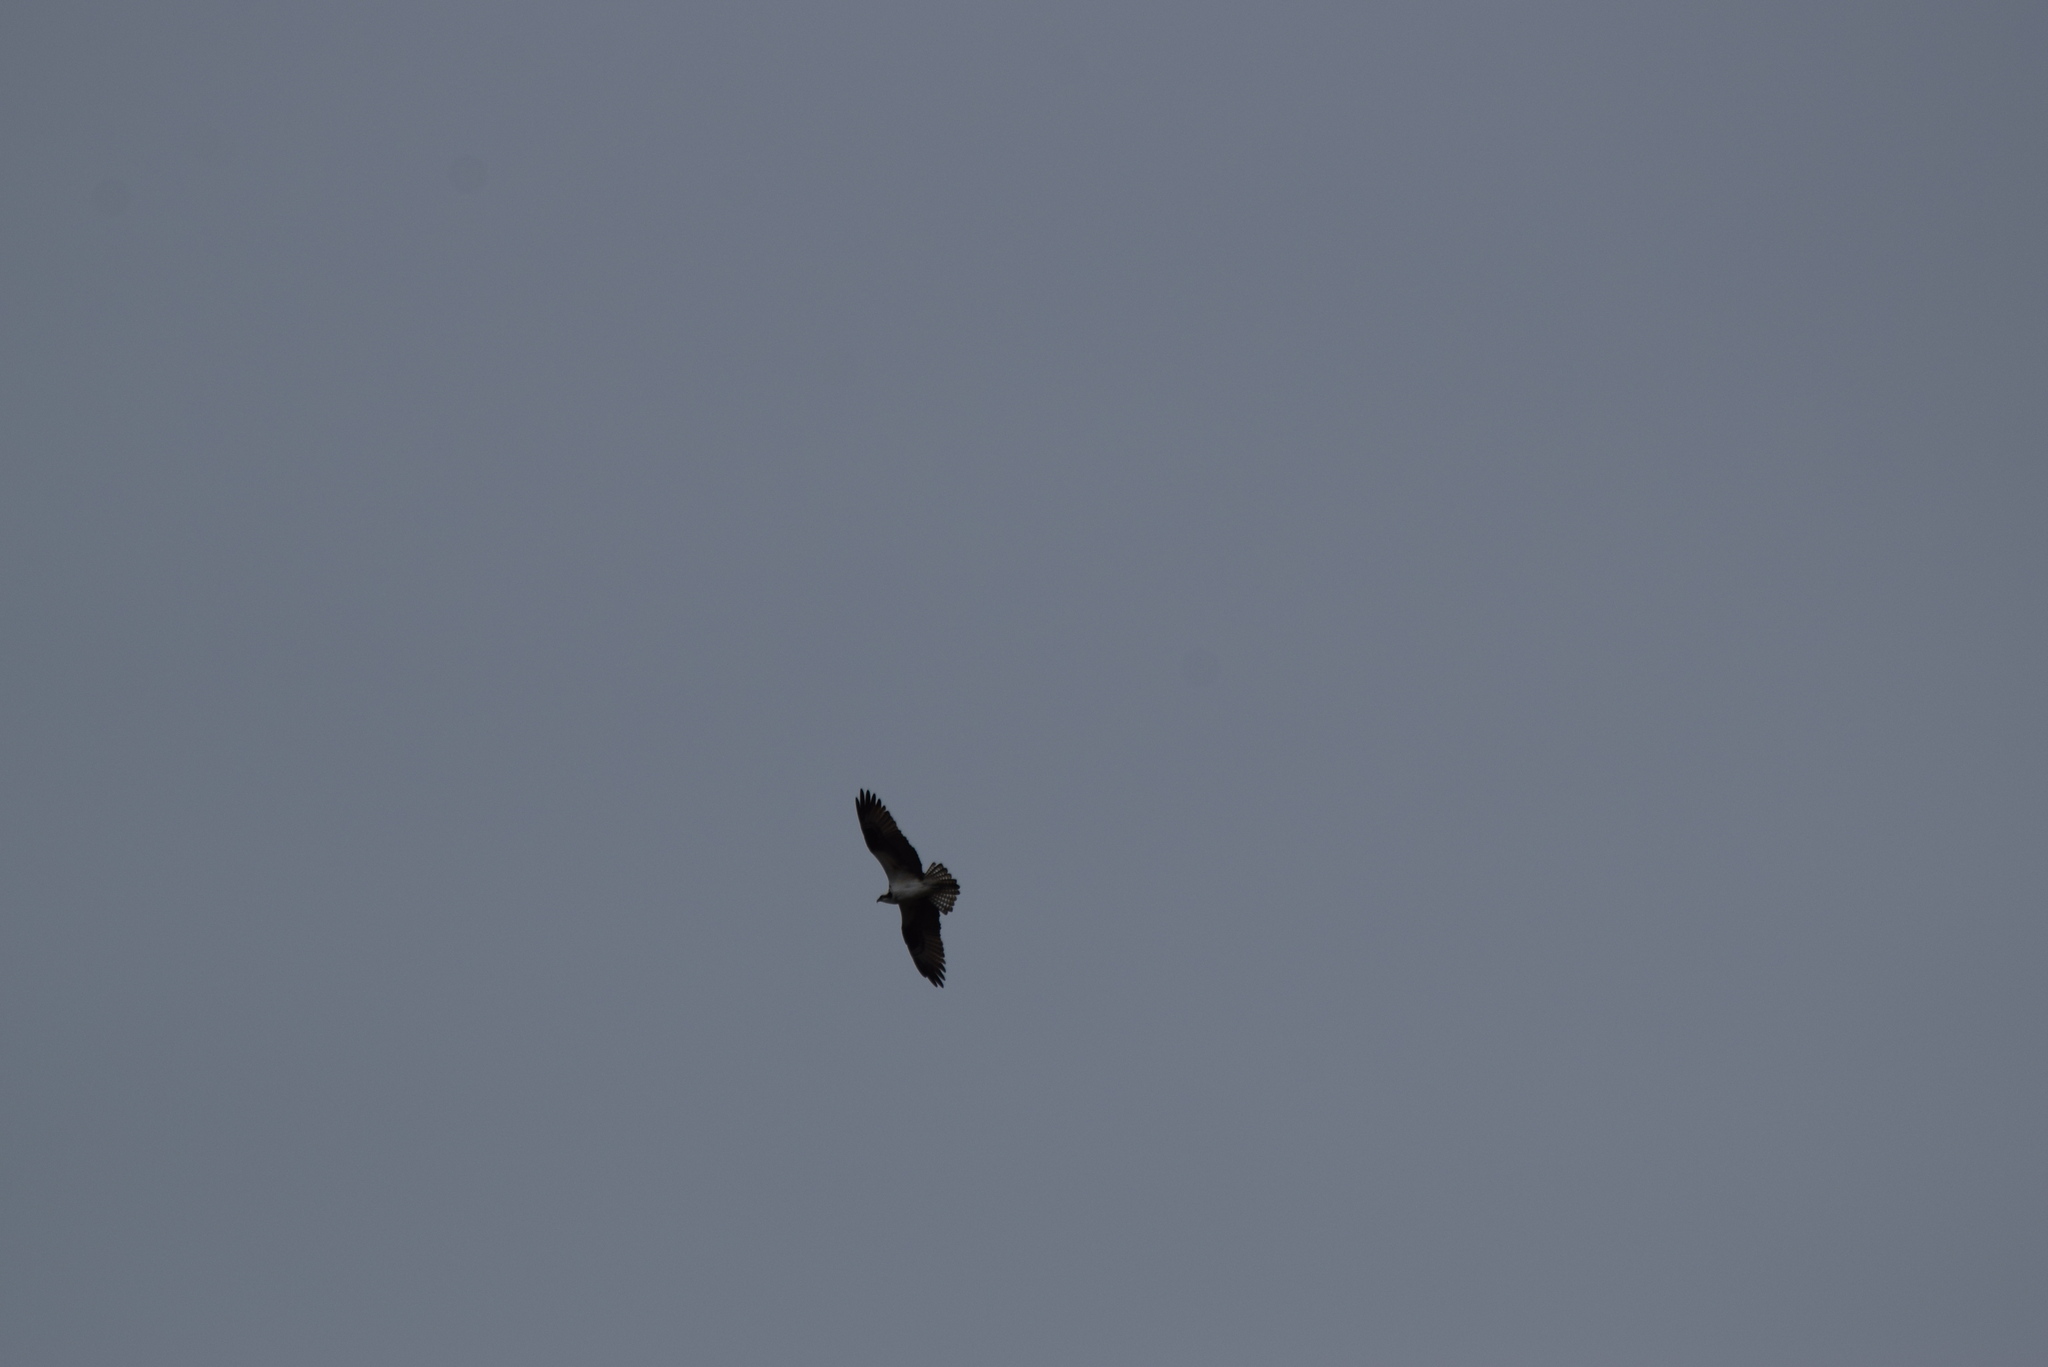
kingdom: Animalia
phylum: Chordata
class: Aves
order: Accipitriformes
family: Pandionidae
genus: Pandion
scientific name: Pandion haliaetus
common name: Osprey
